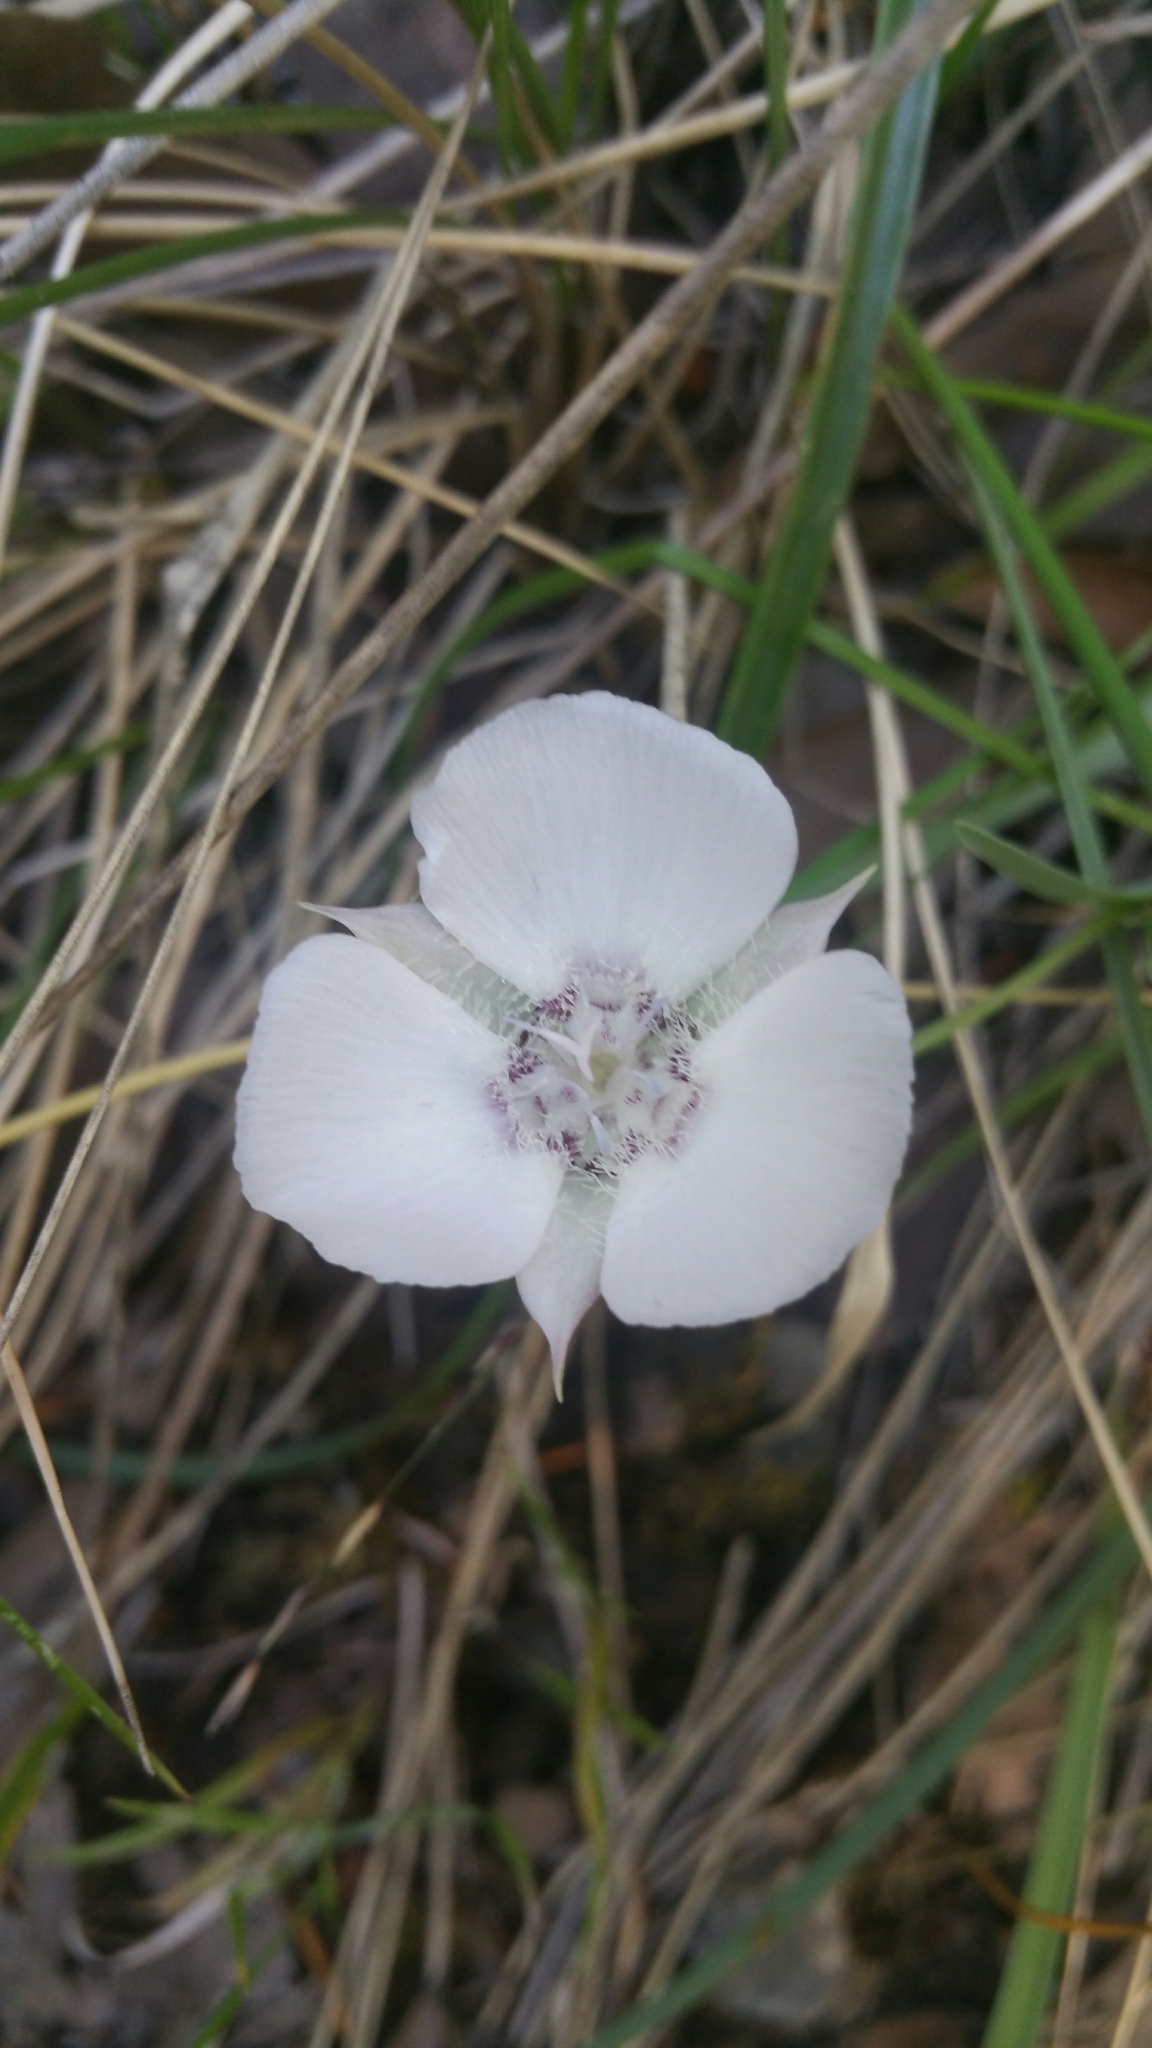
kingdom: Plantae
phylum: Tracheophyta
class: Liliopsida
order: Liliales
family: Liliaceae
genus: Calochortus
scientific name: Calochortus umbellatus
